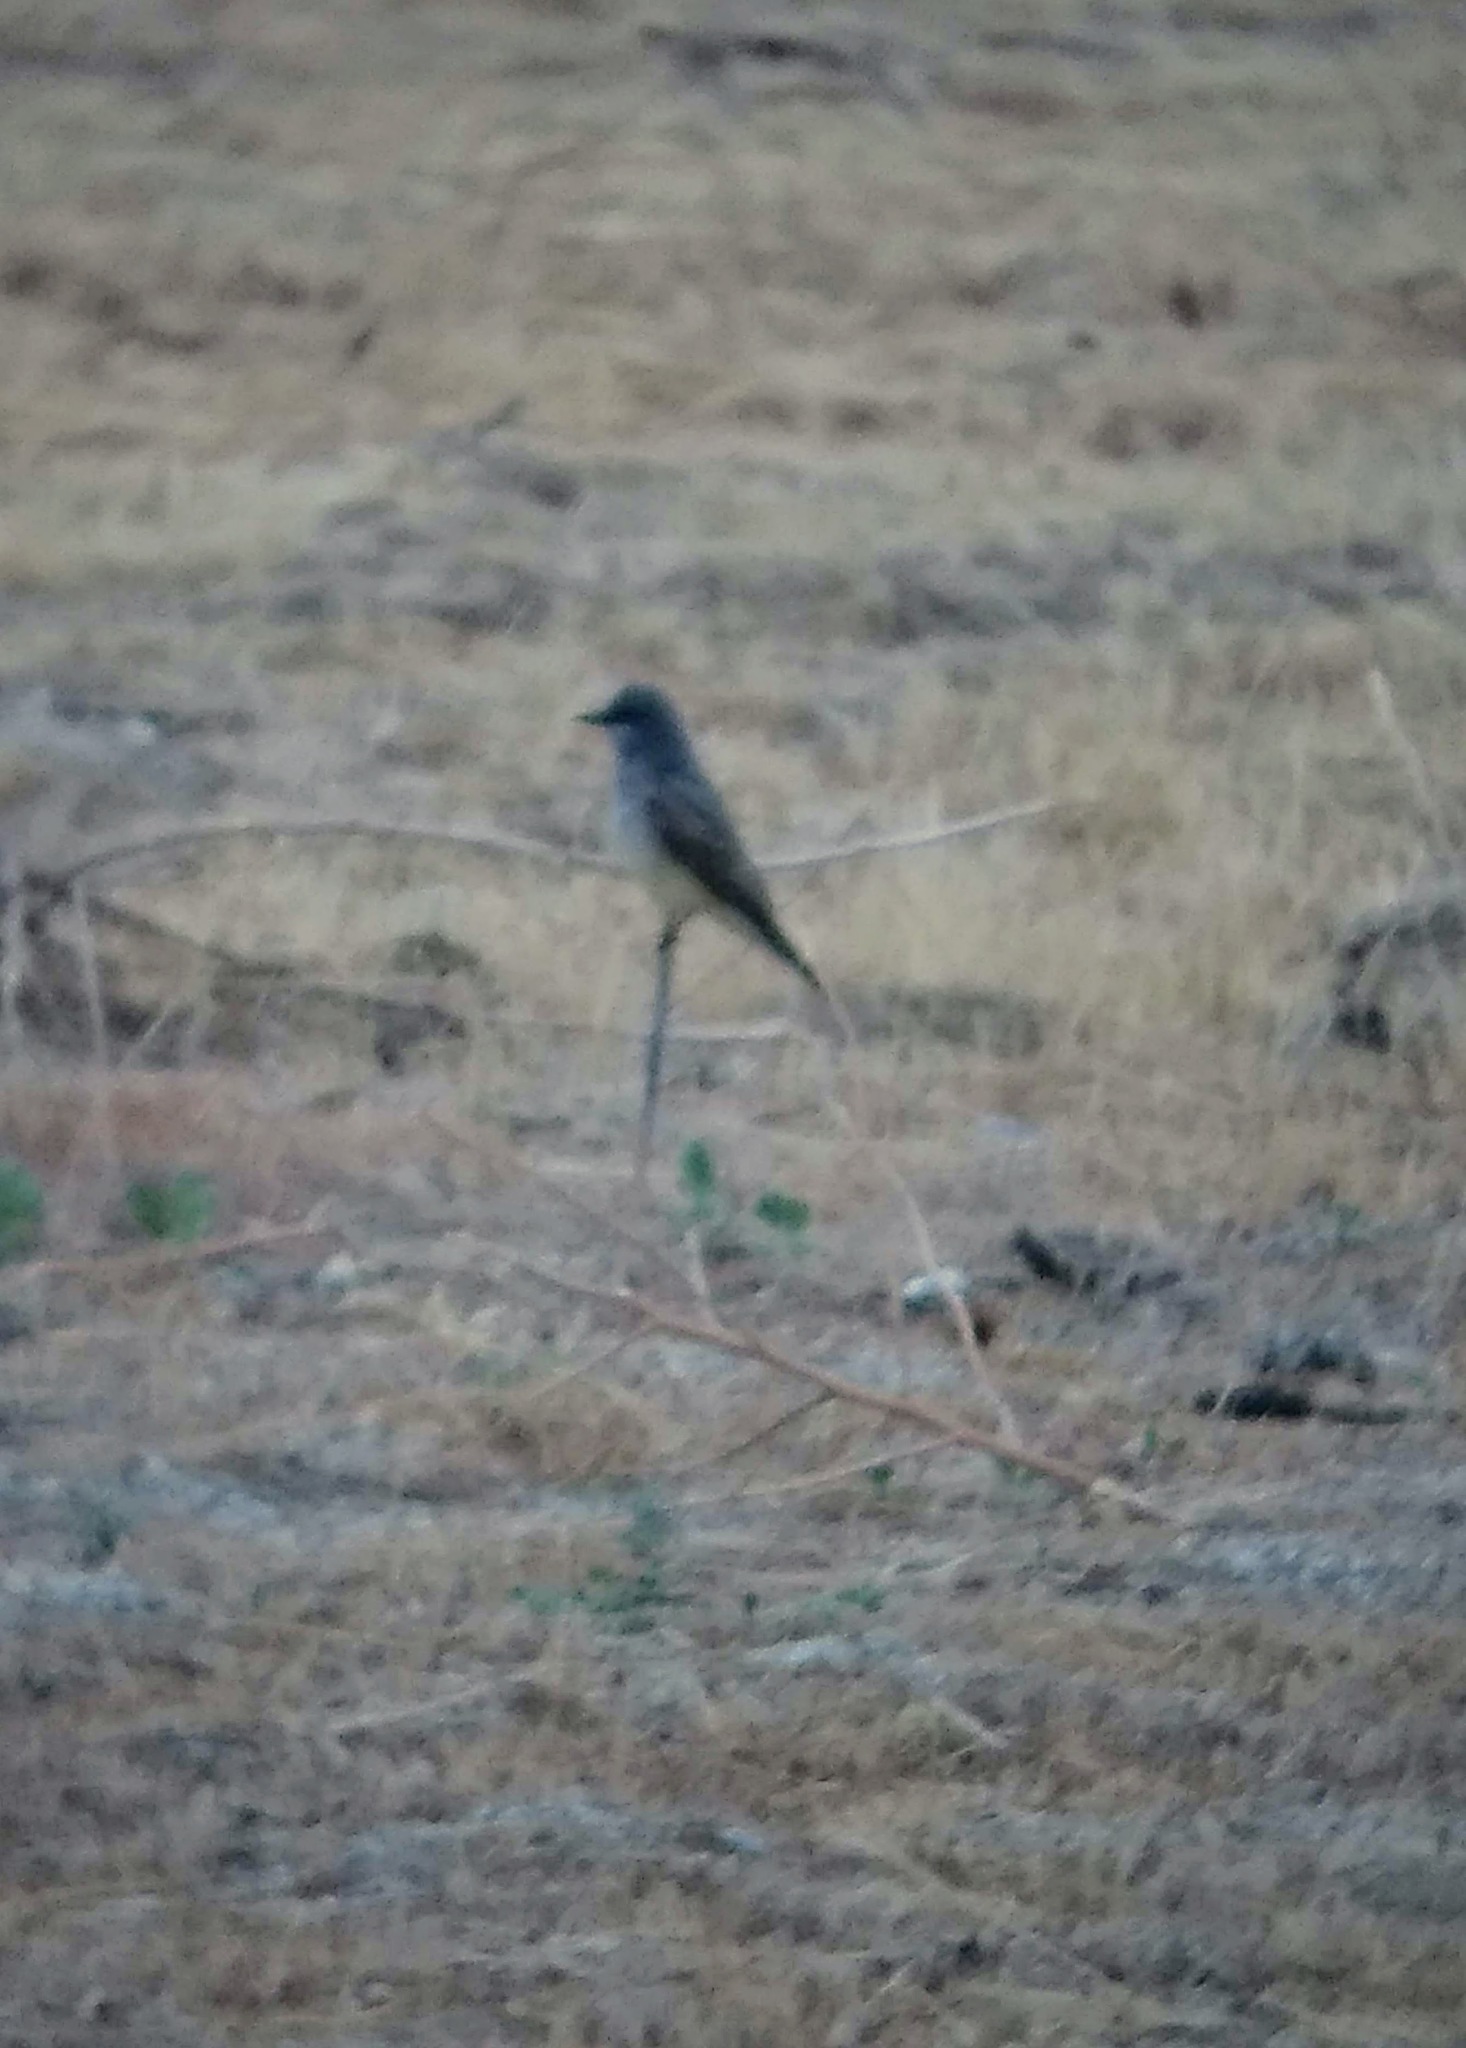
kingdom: Animalia
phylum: Chordata
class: Aves
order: Passeriformes
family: Tyrannidae
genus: Tyrannus
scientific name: Tyrannus vociferans
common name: Cassin's kingbird
